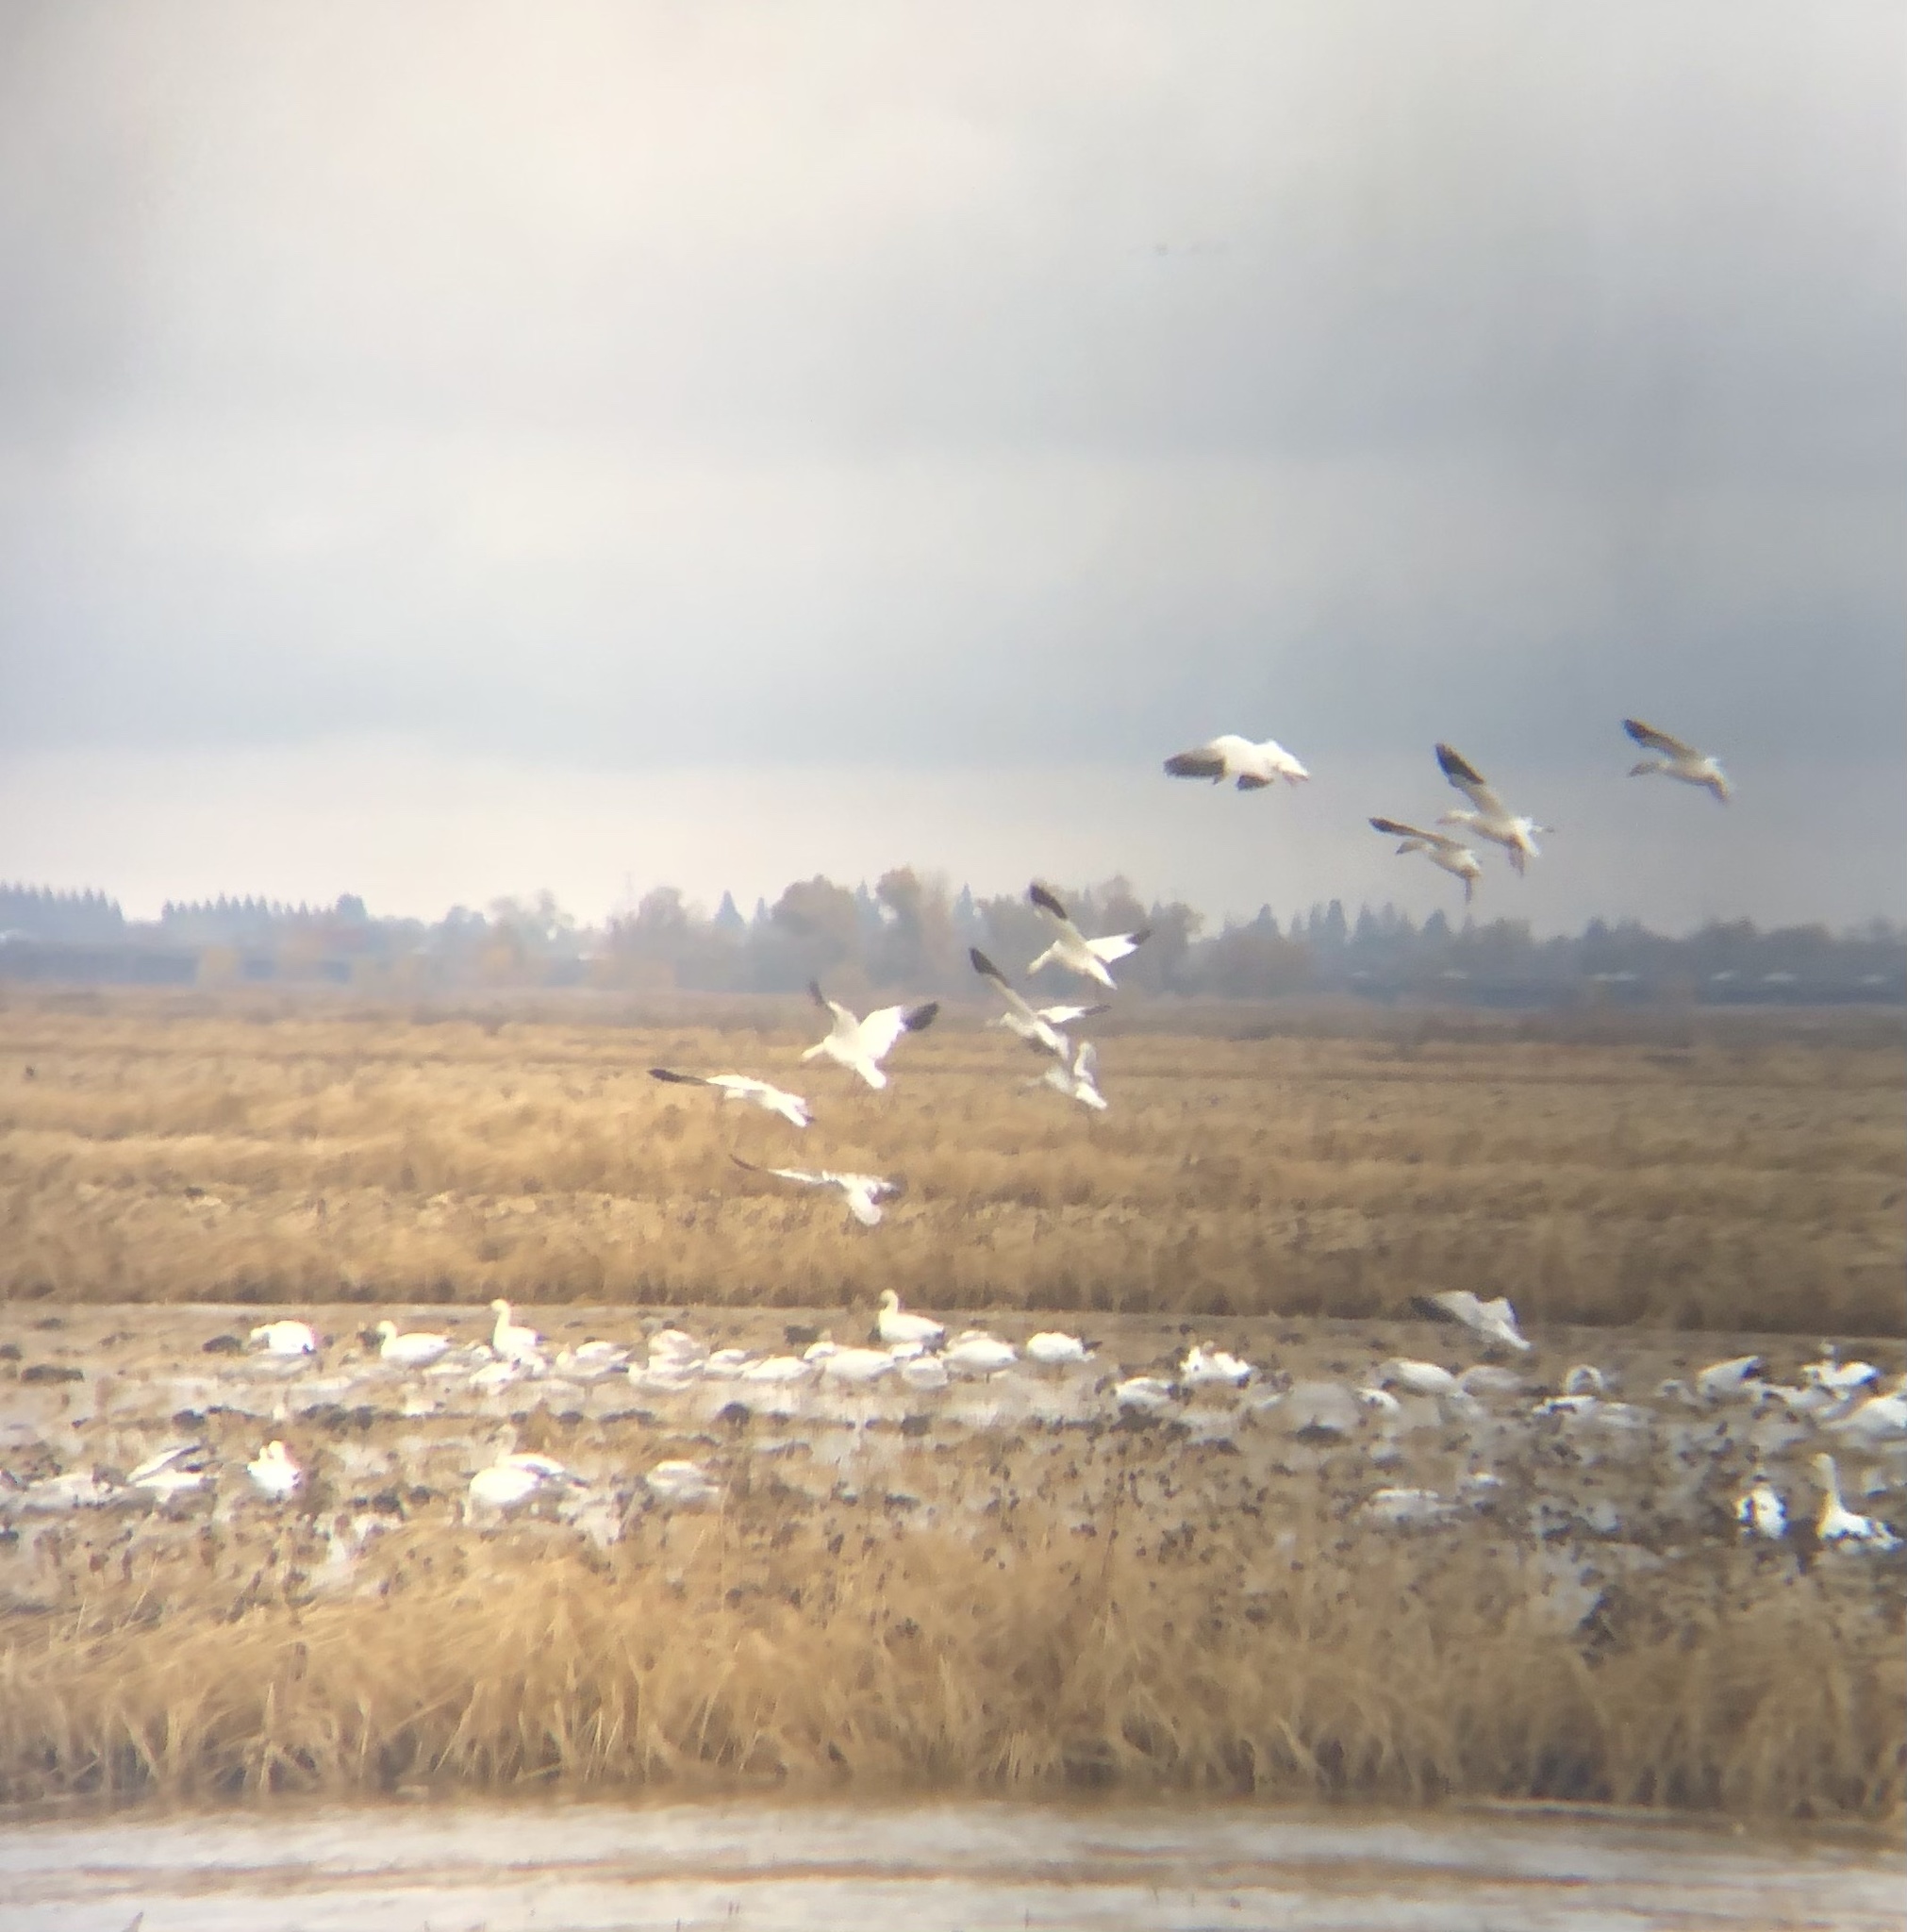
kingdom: Animalia
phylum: Chordata
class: Aves
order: Anseriformes
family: Anatidae
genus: Anser
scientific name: Anser caerulescens
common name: Snow goose
